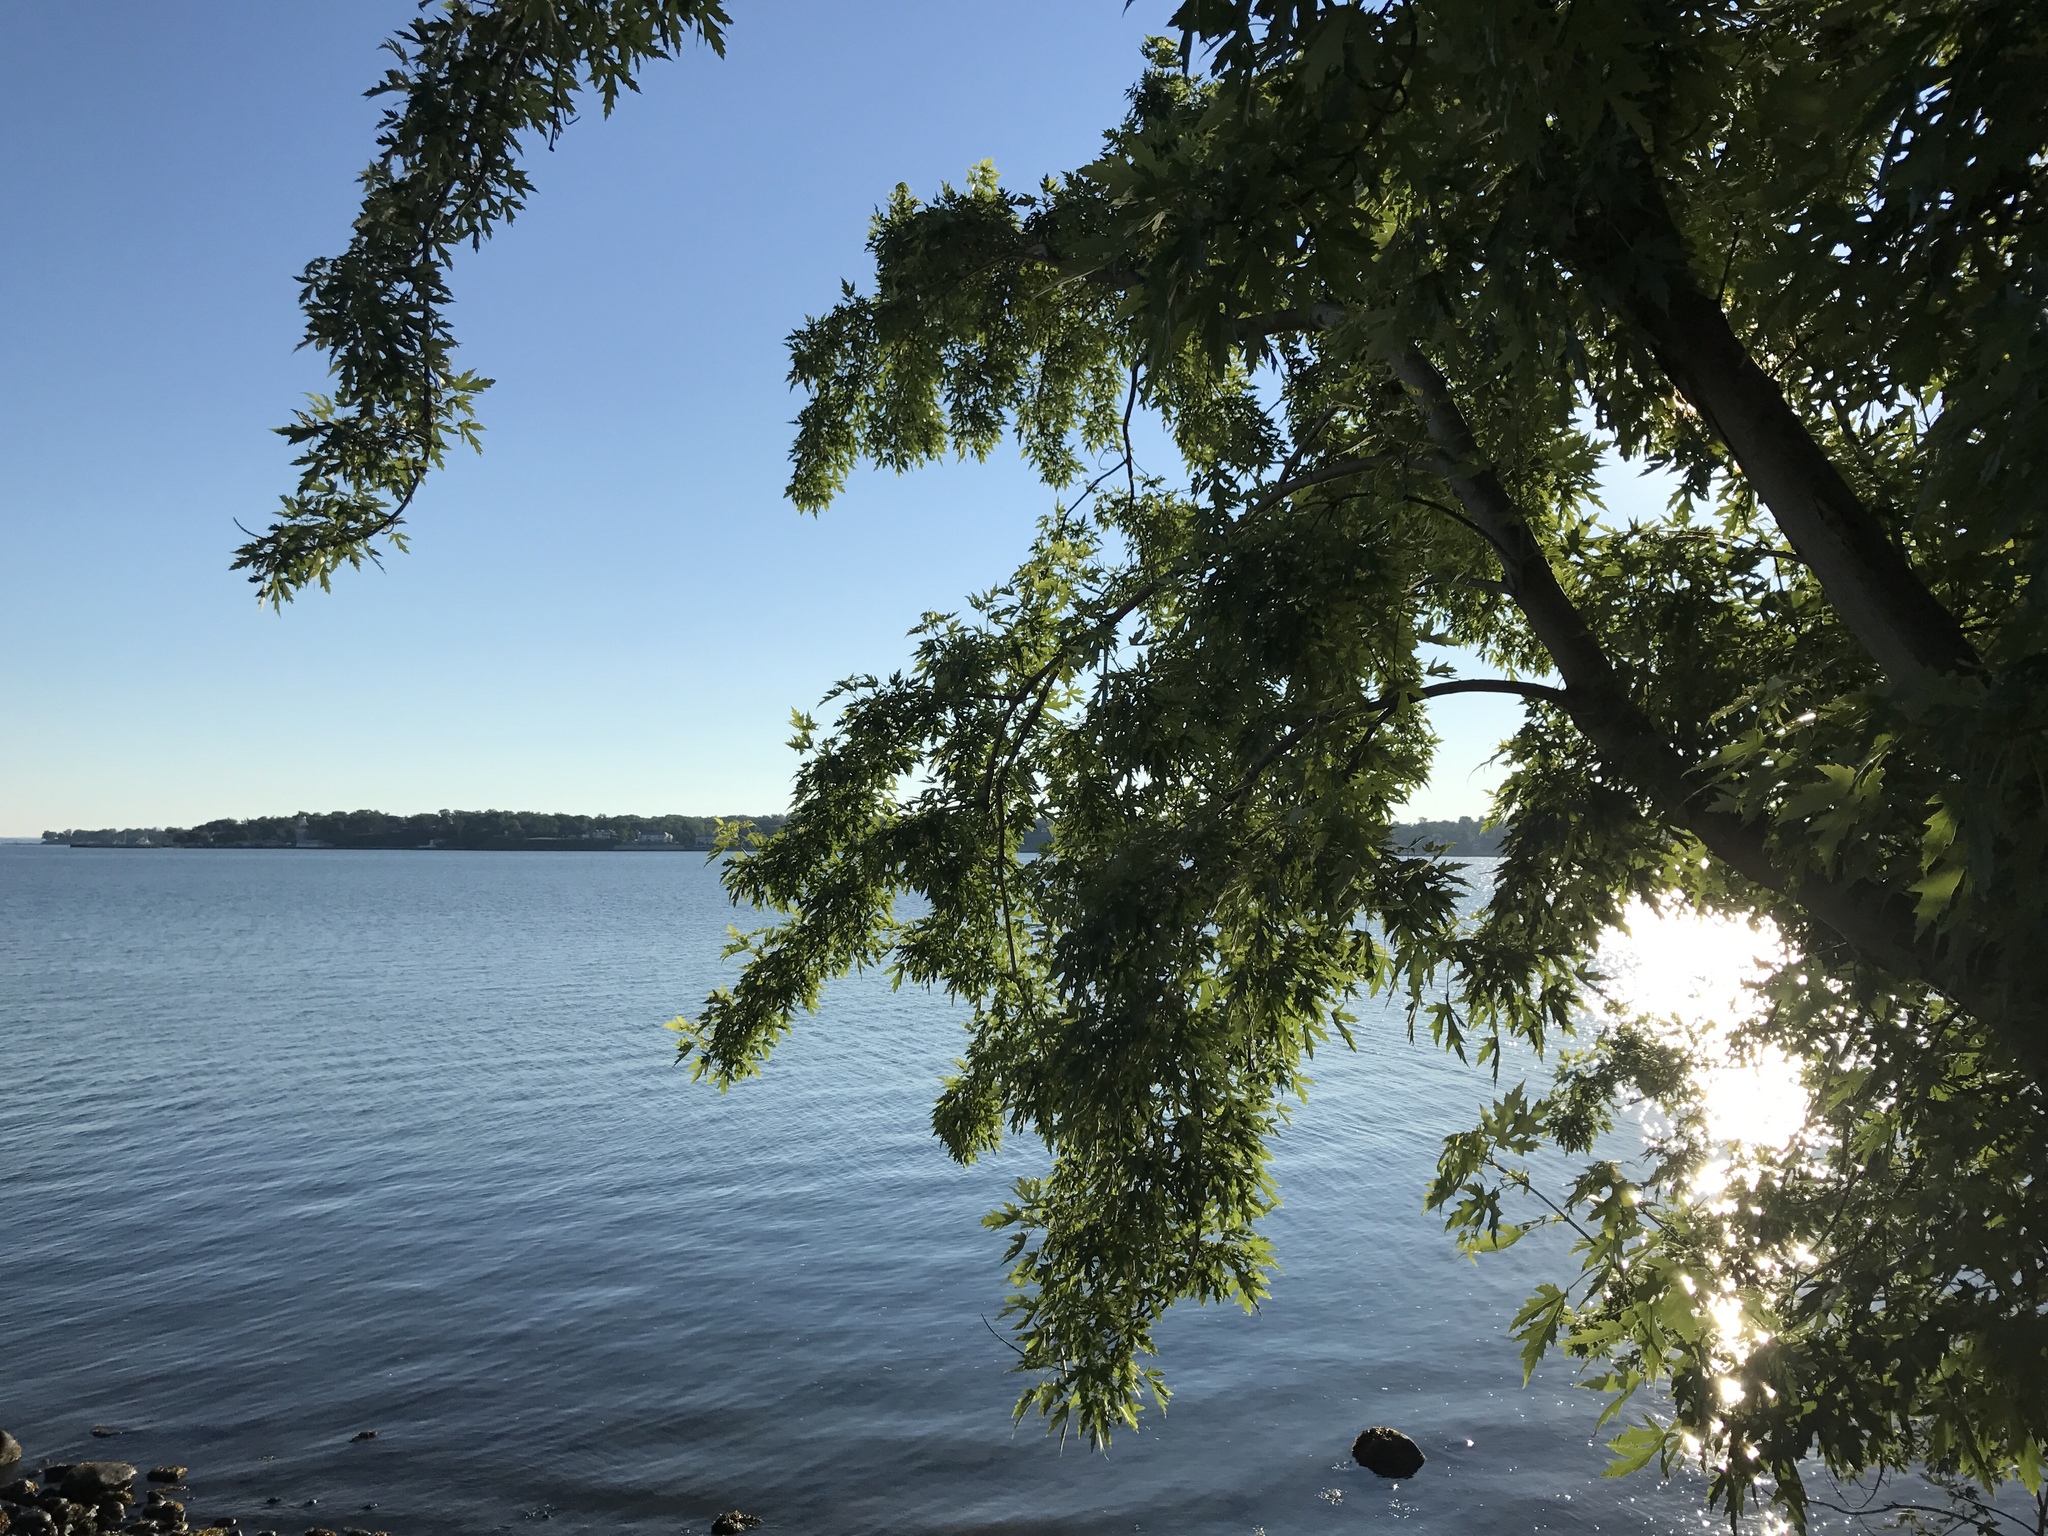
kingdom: Plantae
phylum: Tracheophyta
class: Magnoliopsida
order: Sapindales
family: Sapindaceae
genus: Acer
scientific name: Acer saccharinum
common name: Silver maple
